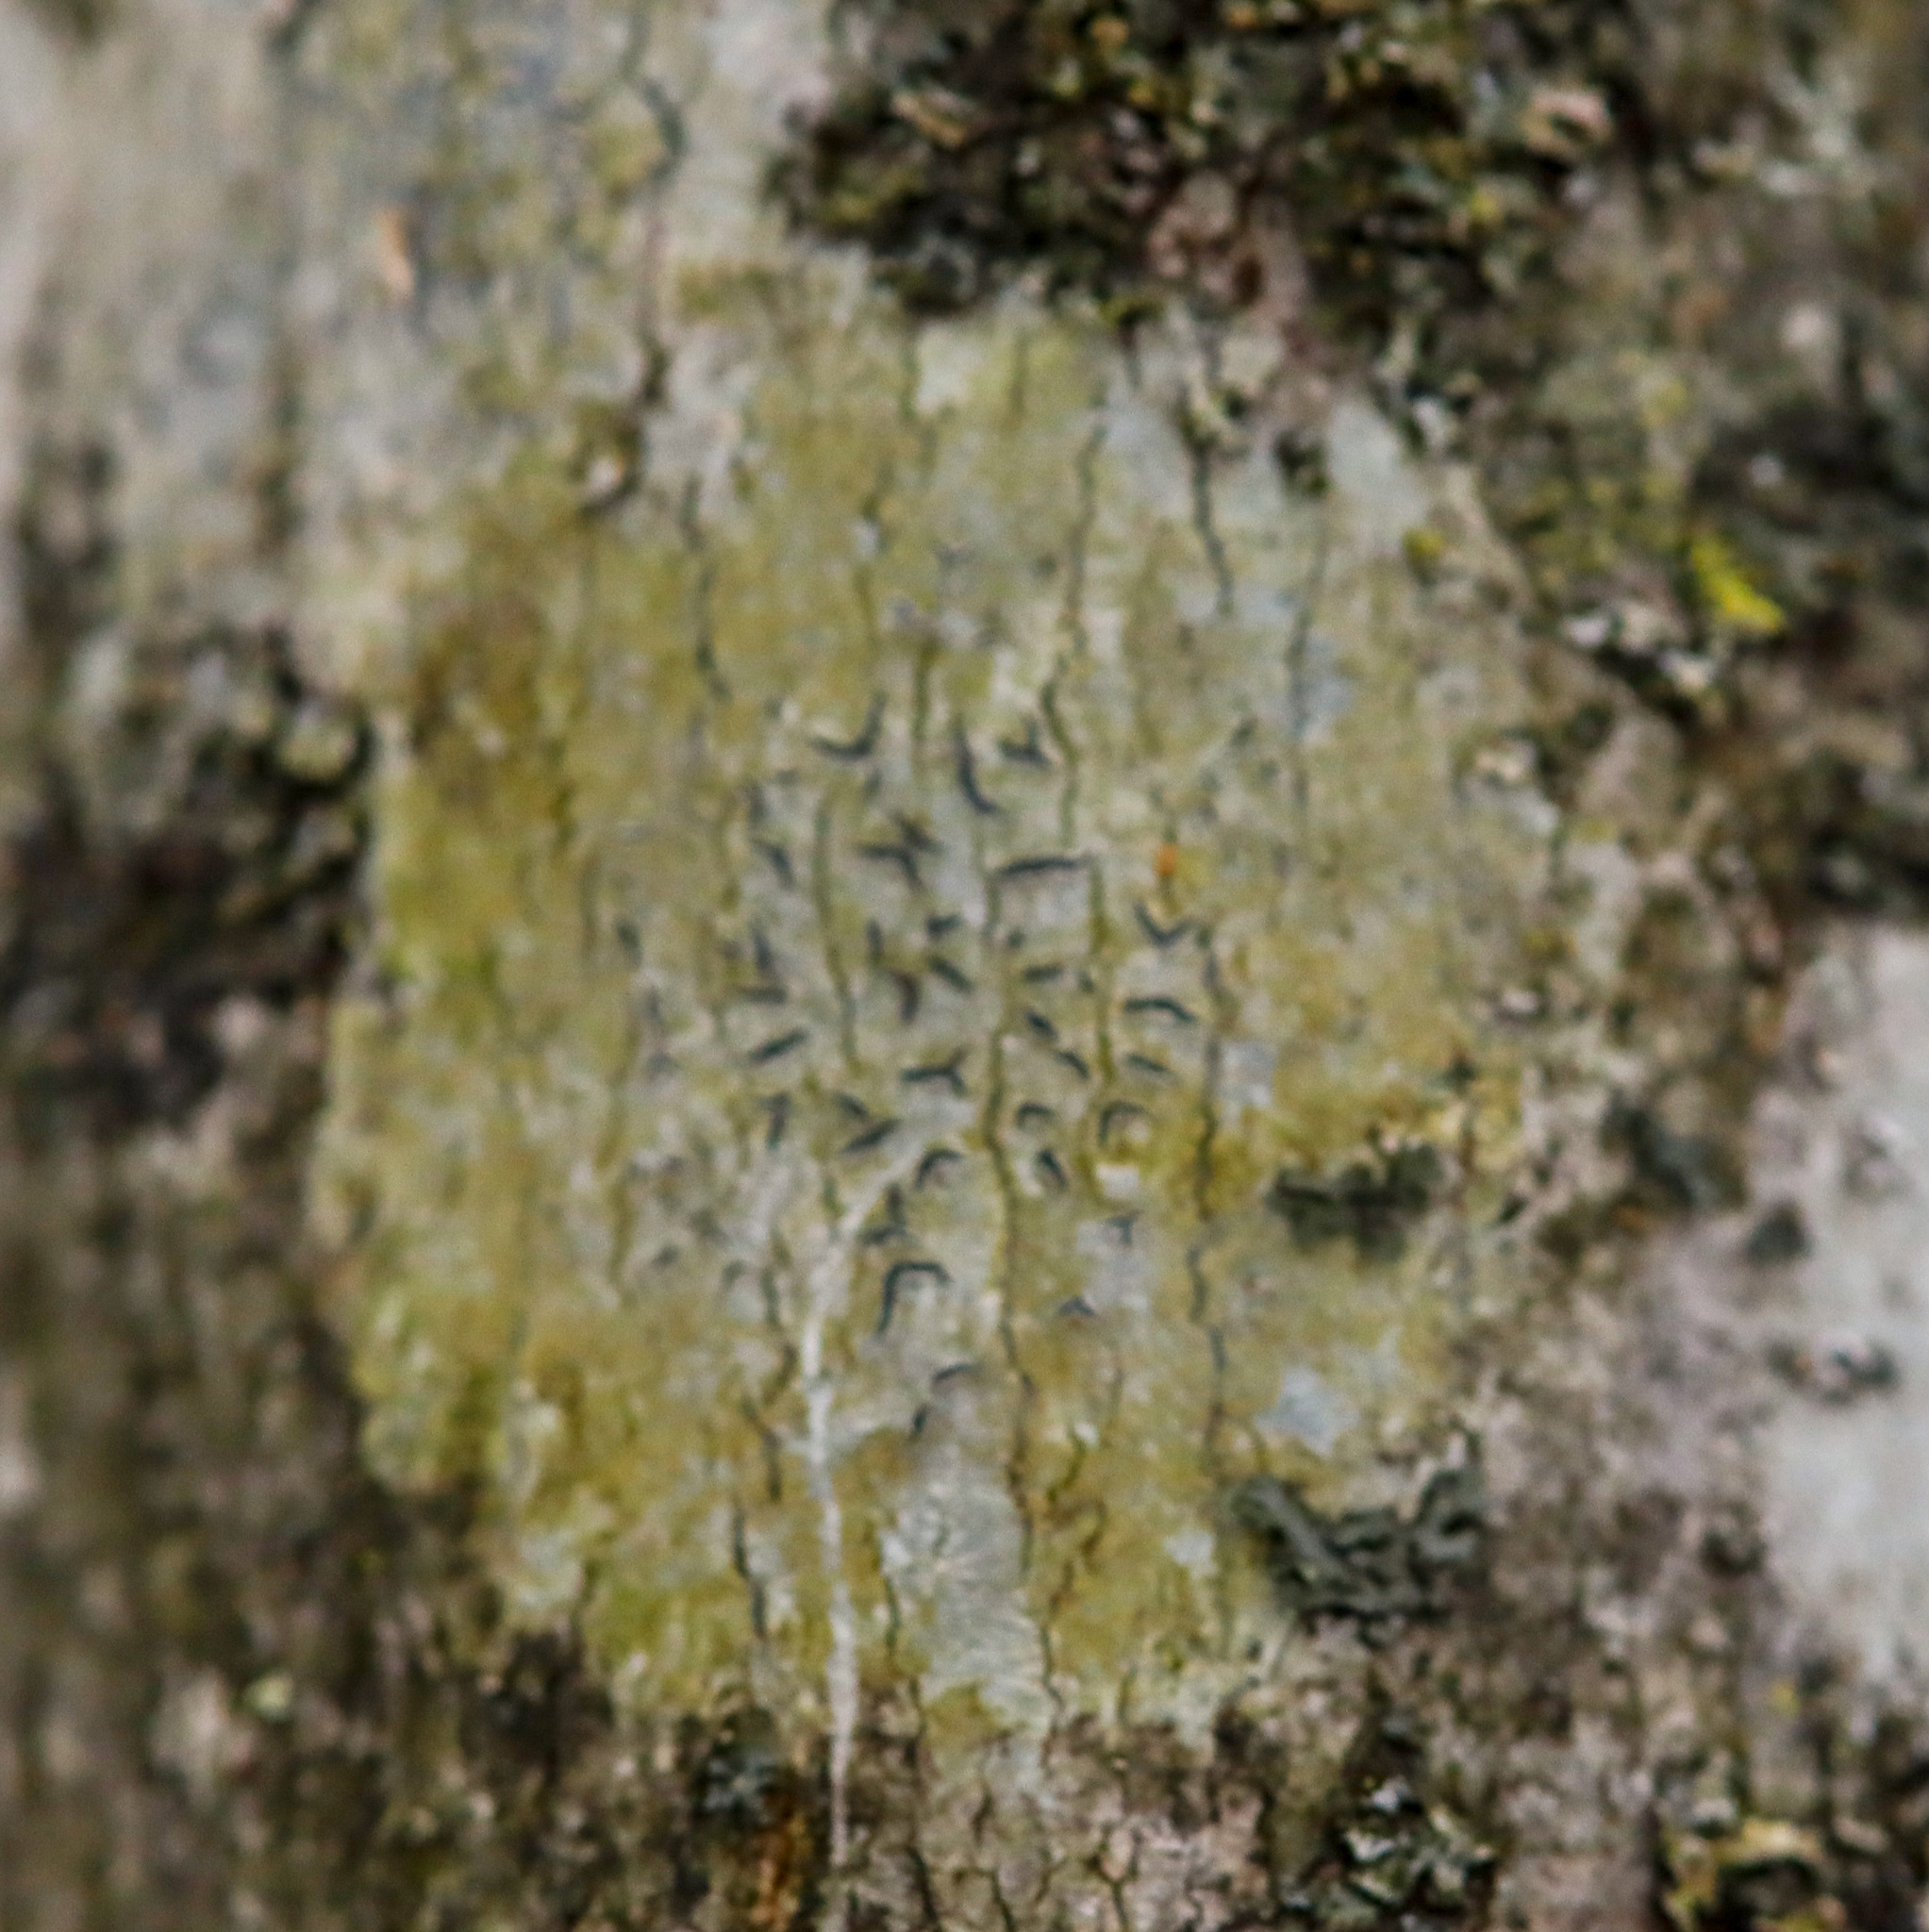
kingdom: Fungi
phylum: Ascomycota
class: Lecanoromycetes
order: Ostropales
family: Graphidaceae
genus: Graphis
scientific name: Graphis scripta
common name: Script lichen
